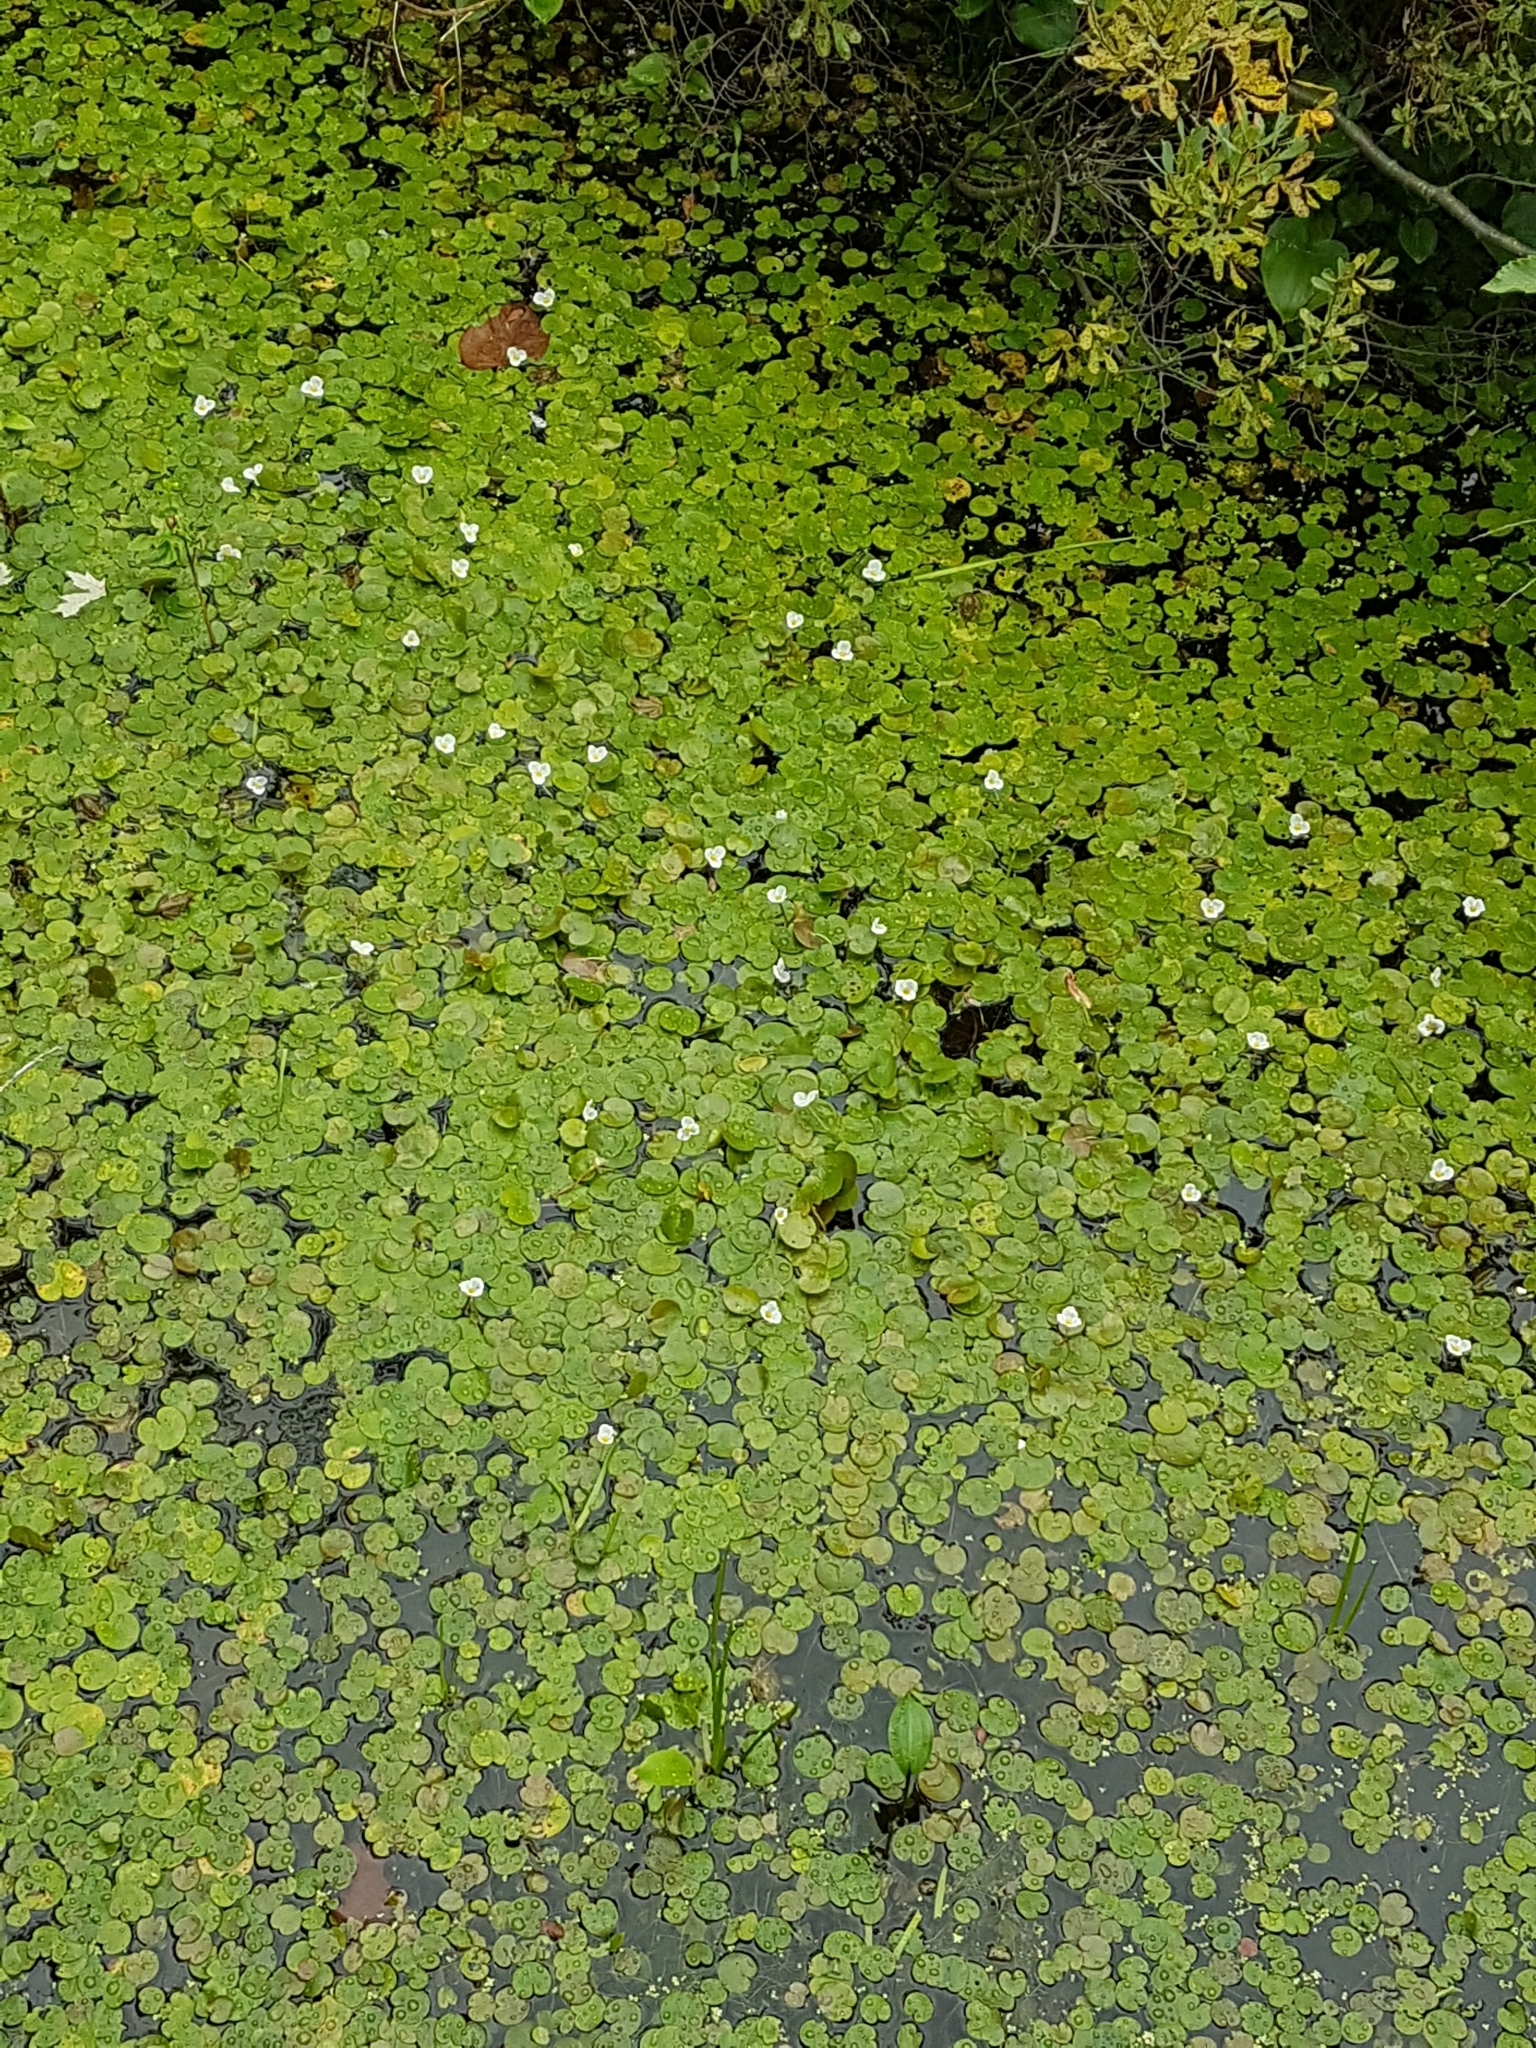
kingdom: Plantae
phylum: Tracheophyta
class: Liliopsida
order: Alismatales
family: Hydrocharitaceae
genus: Hydrocharis
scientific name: Hydrocharis morsus-ranae
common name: Frogbit
